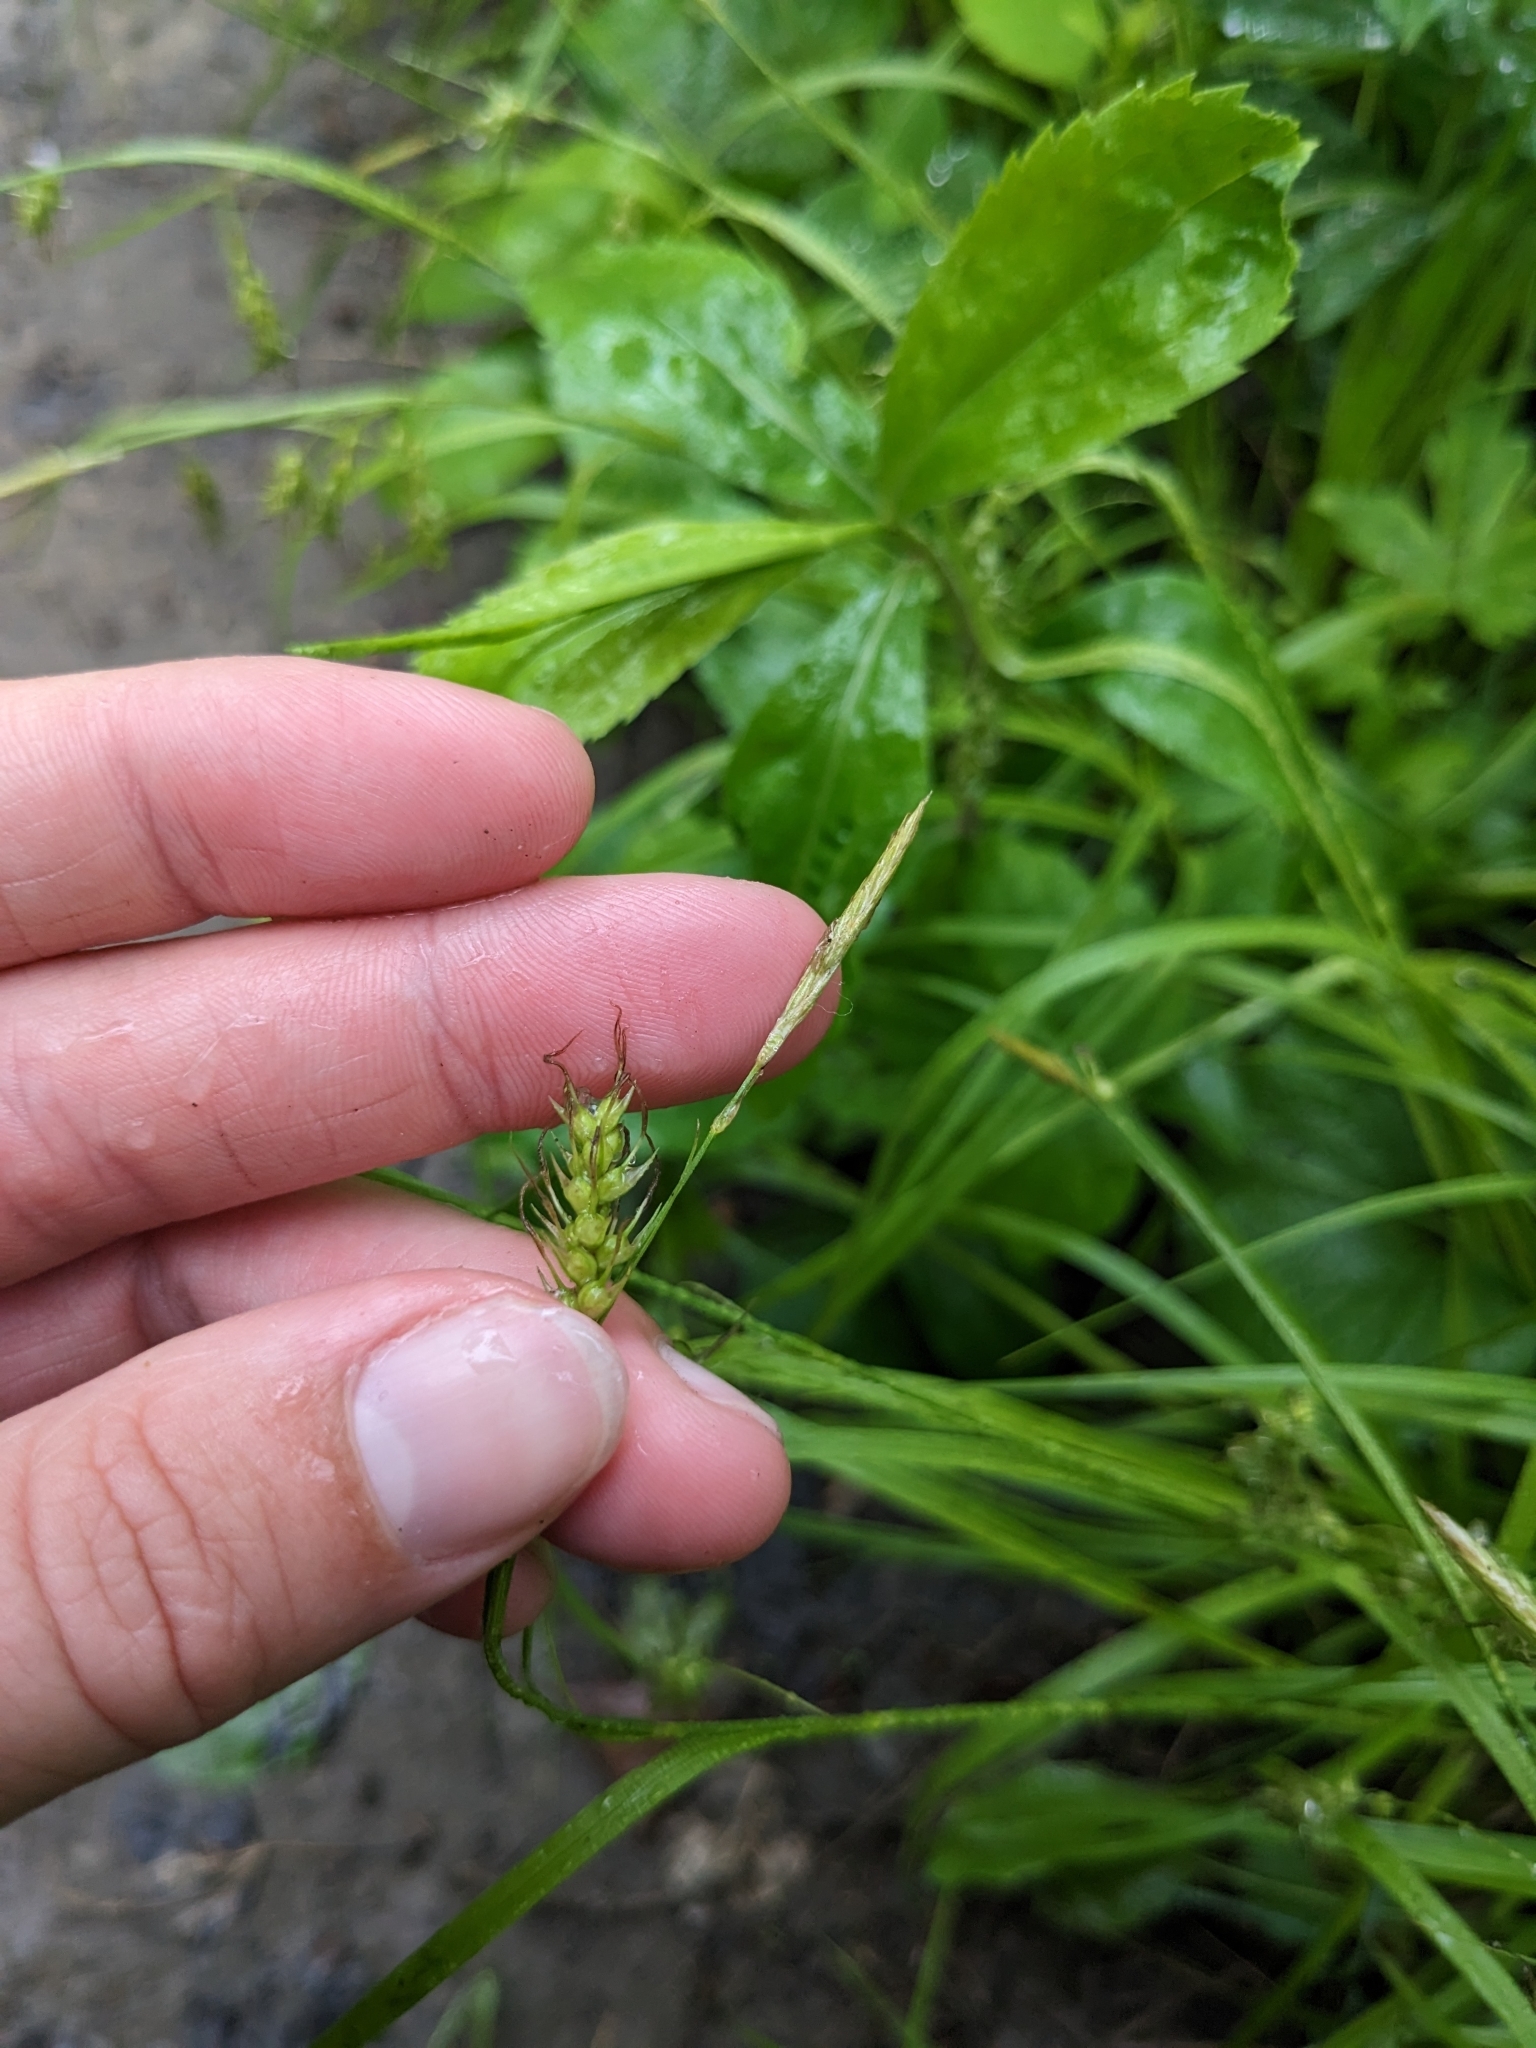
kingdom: Plantae
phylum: Tracheophyta
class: Liliopsida
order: Poales
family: Cyperaceae
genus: Carex
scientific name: Carex sprengelii
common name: Long-beaked sedge
